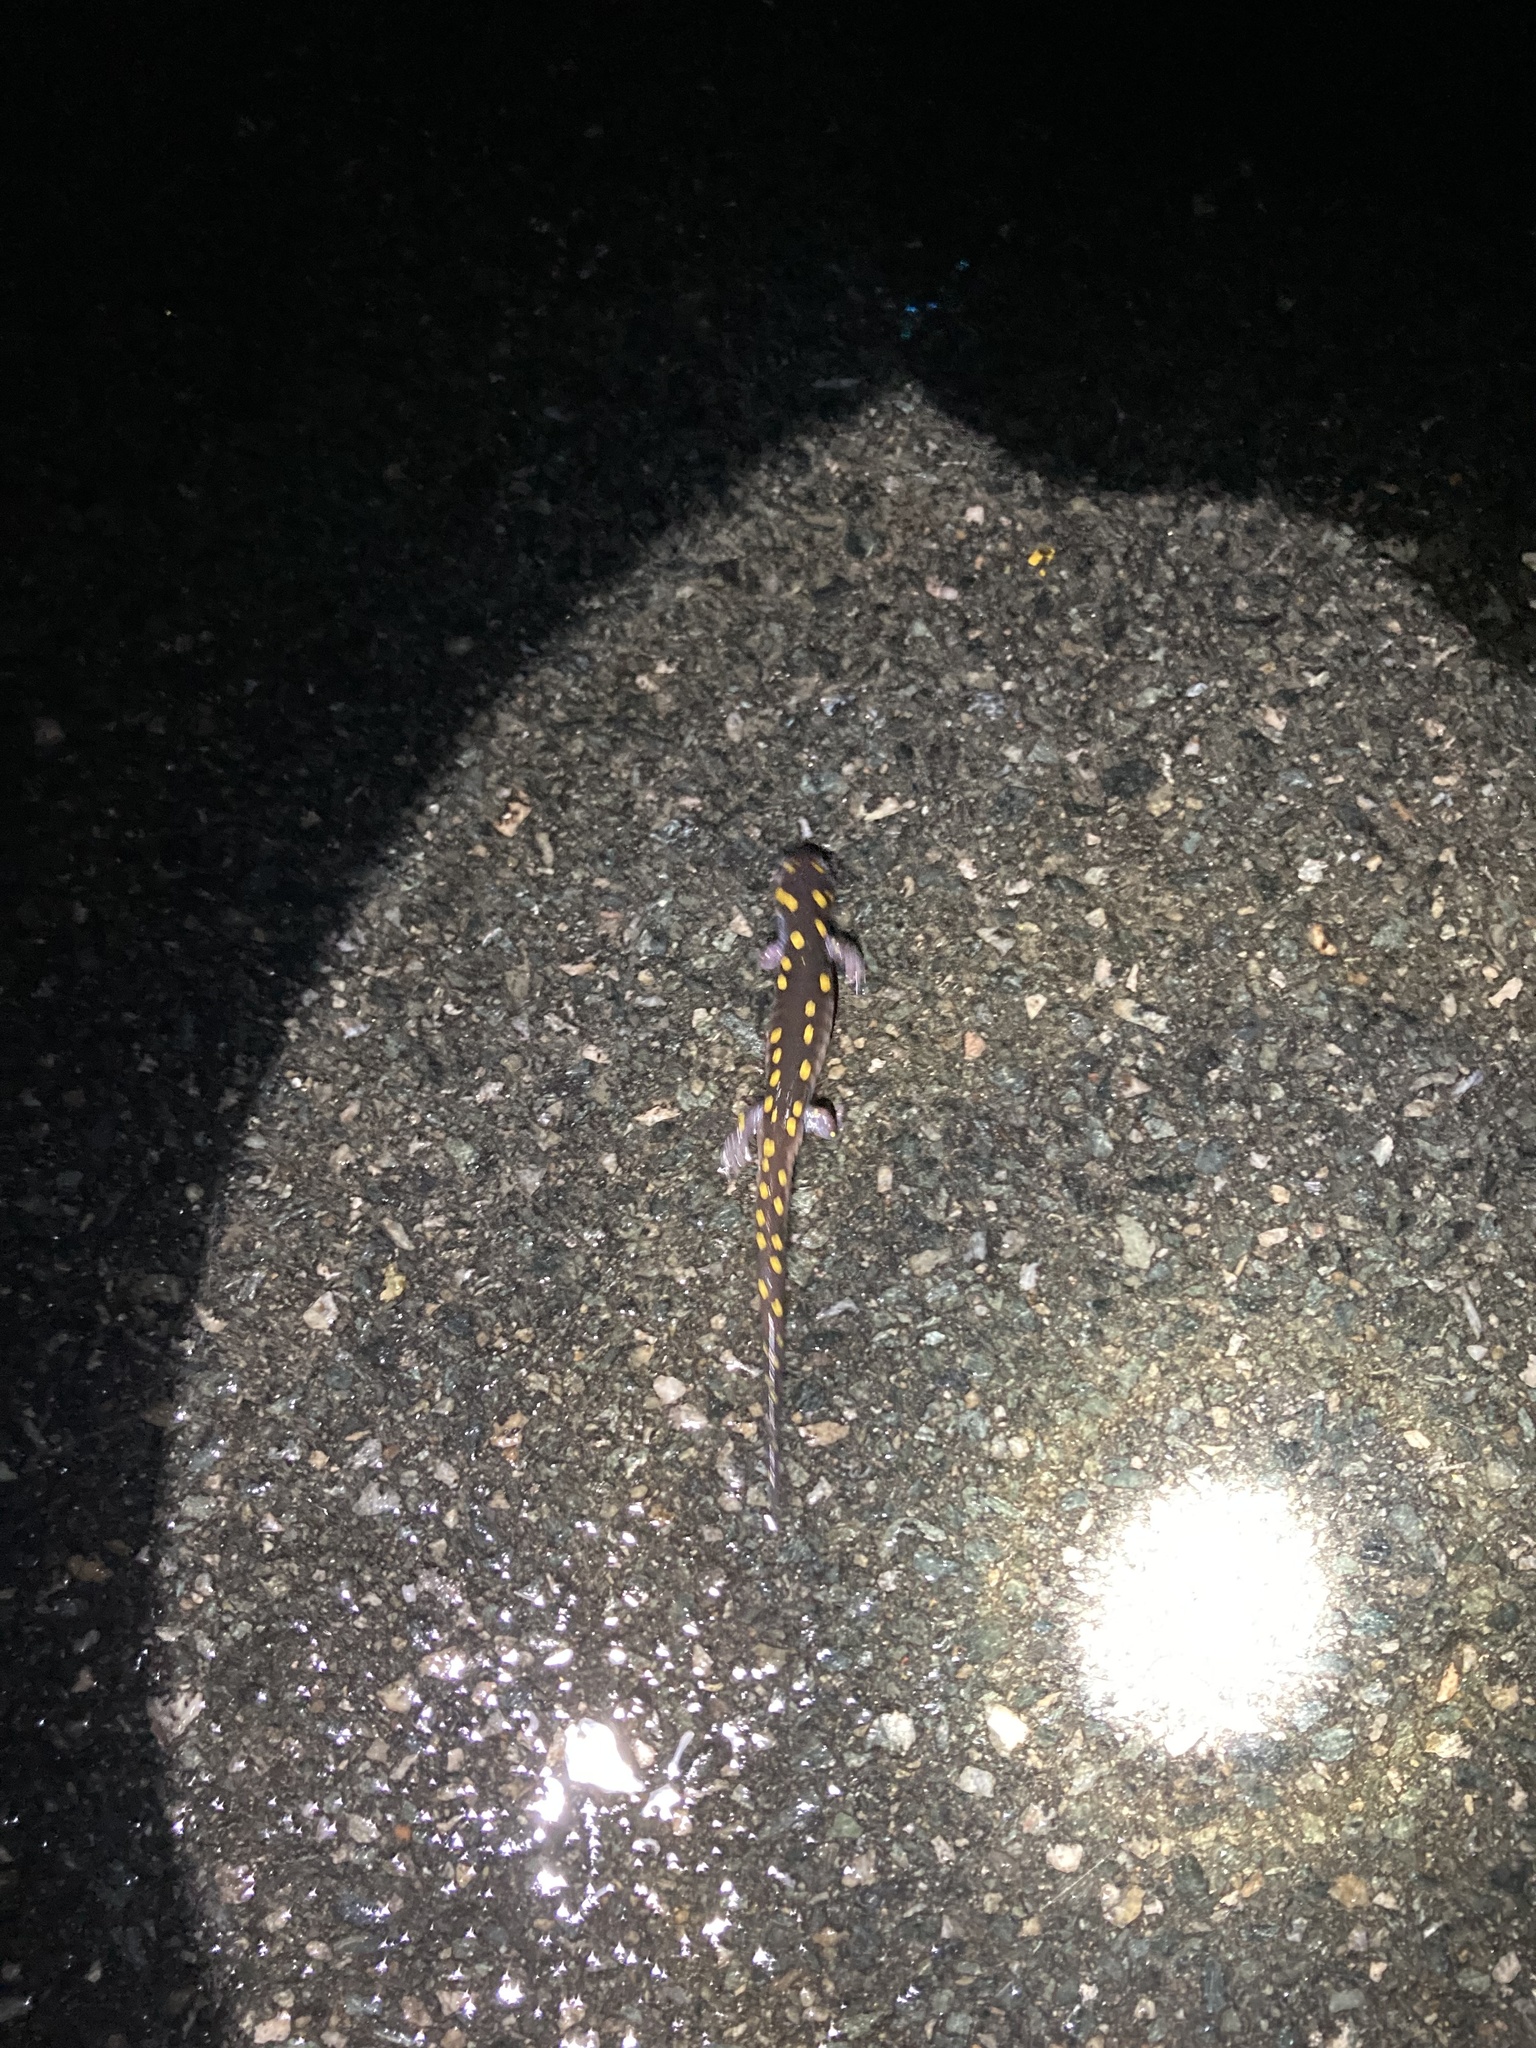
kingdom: Animalia
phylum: Chordata
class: Amphibia
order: Caudata
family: Ambystomatidae
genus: Ambystoma
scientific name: Ambystoma maculatum
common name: Spotted salamander
